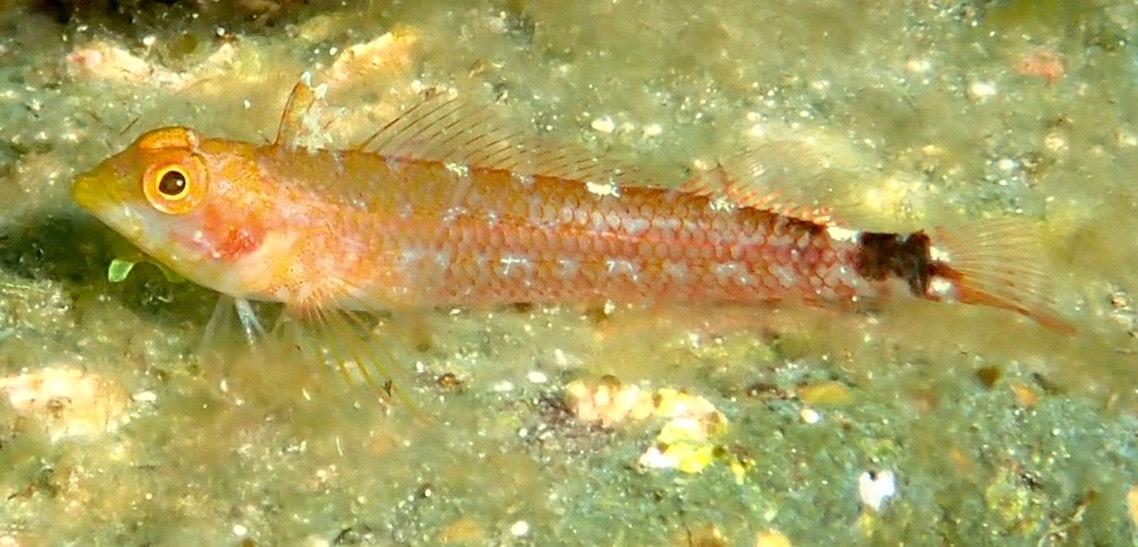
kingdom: Animalia
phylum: Chordata
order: Perciformes
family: Tripterygiidae
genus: Tripterygion
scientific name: Tripterygion delaisi
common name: Black-face blenny
